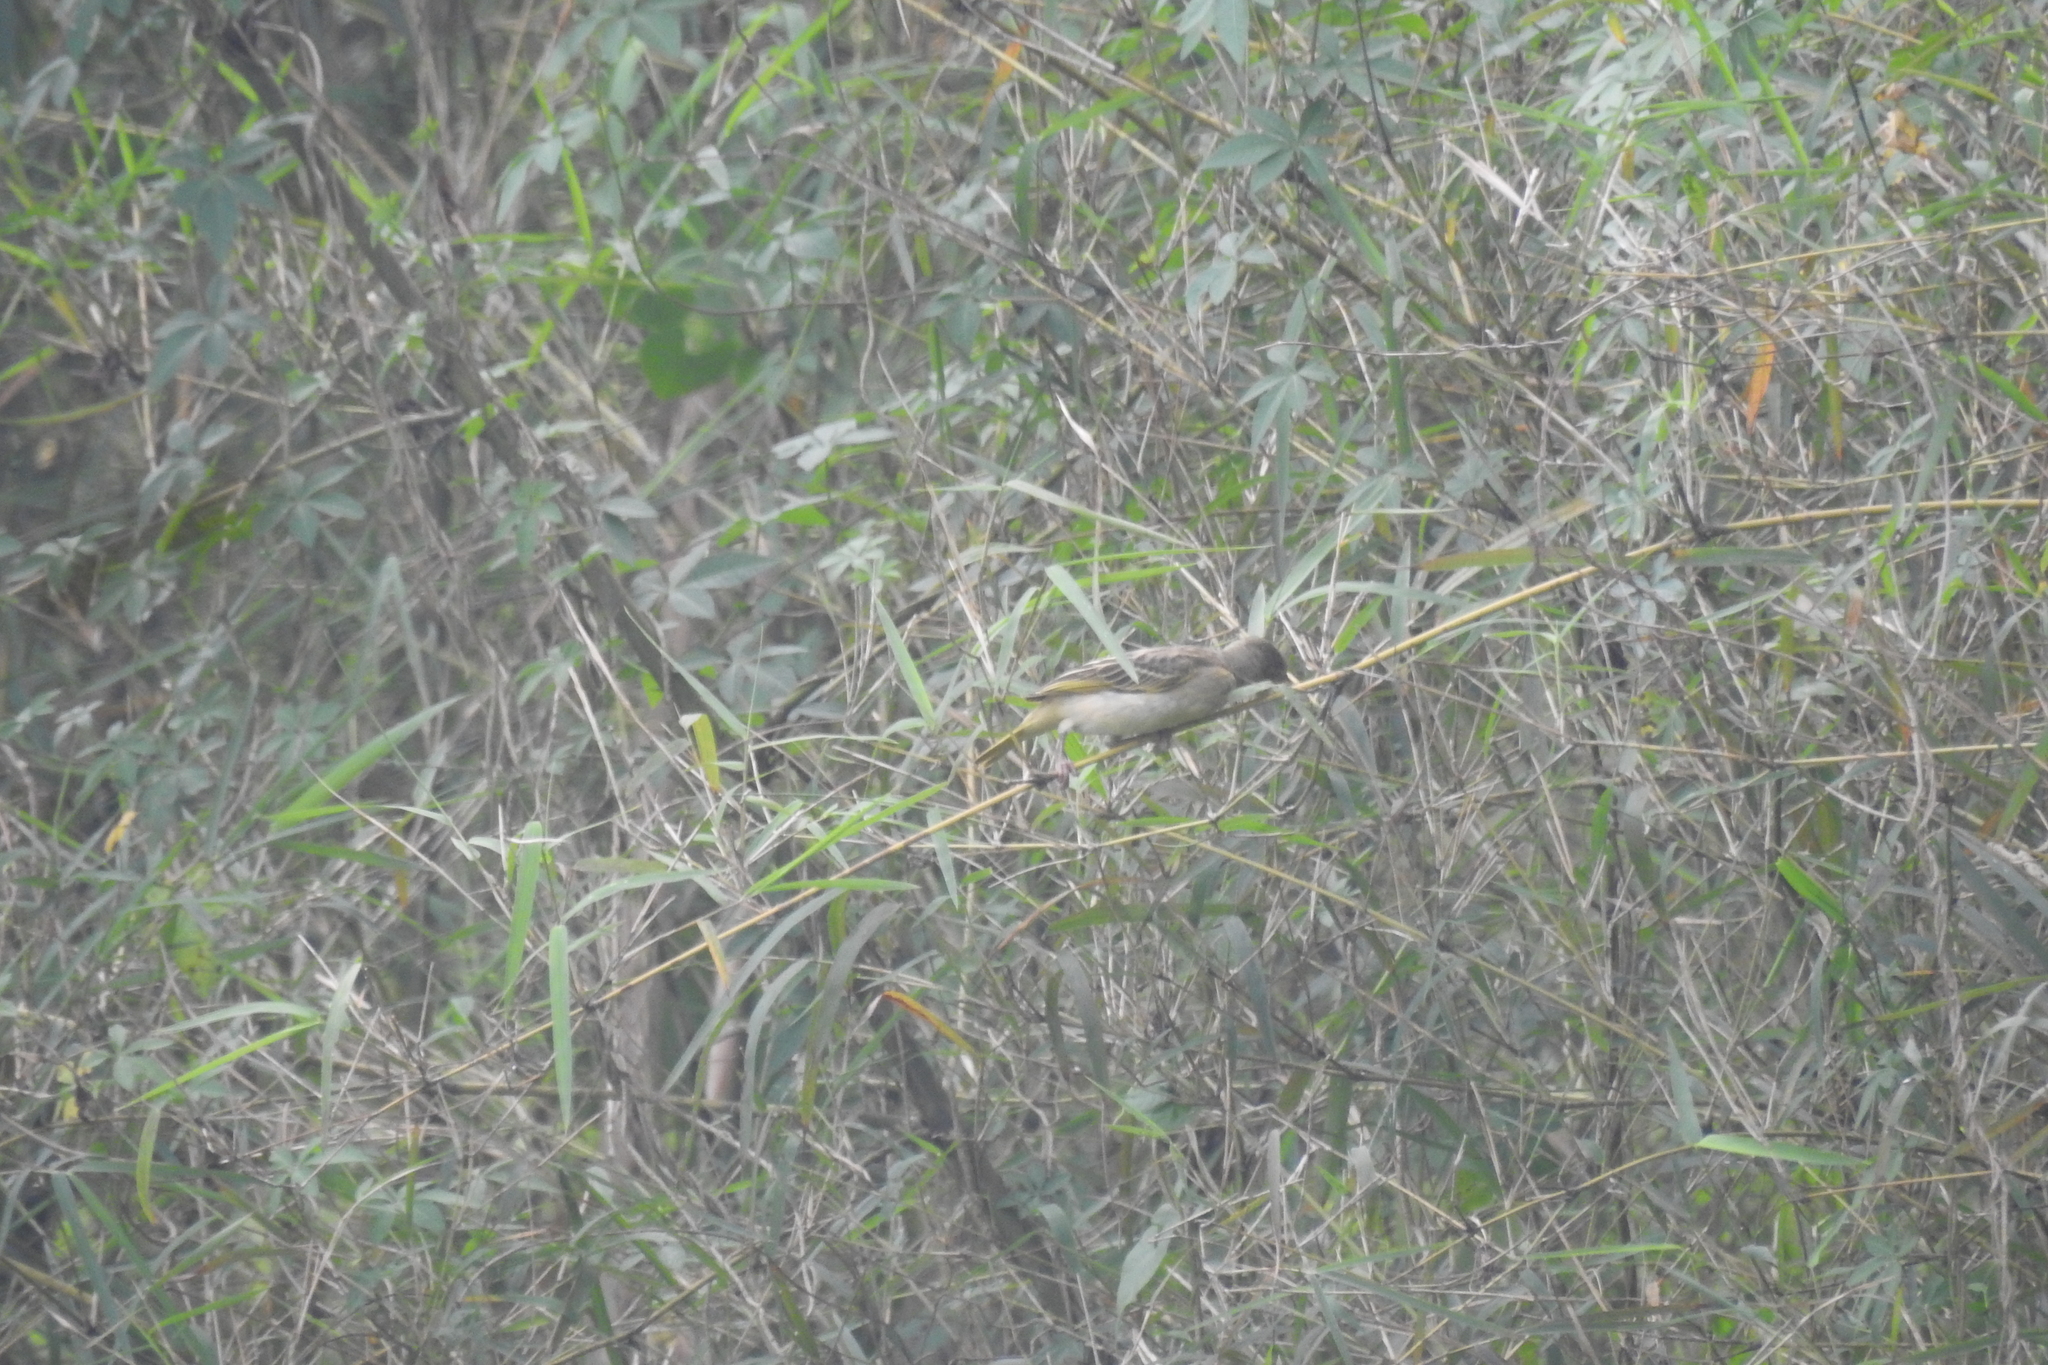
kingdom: Animalia
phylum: Chordata
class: Aves
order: Passeriformes
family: Ploceidae
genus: Ploceus
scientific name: Ploceus jacksoni
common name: Golden-backed weaver
